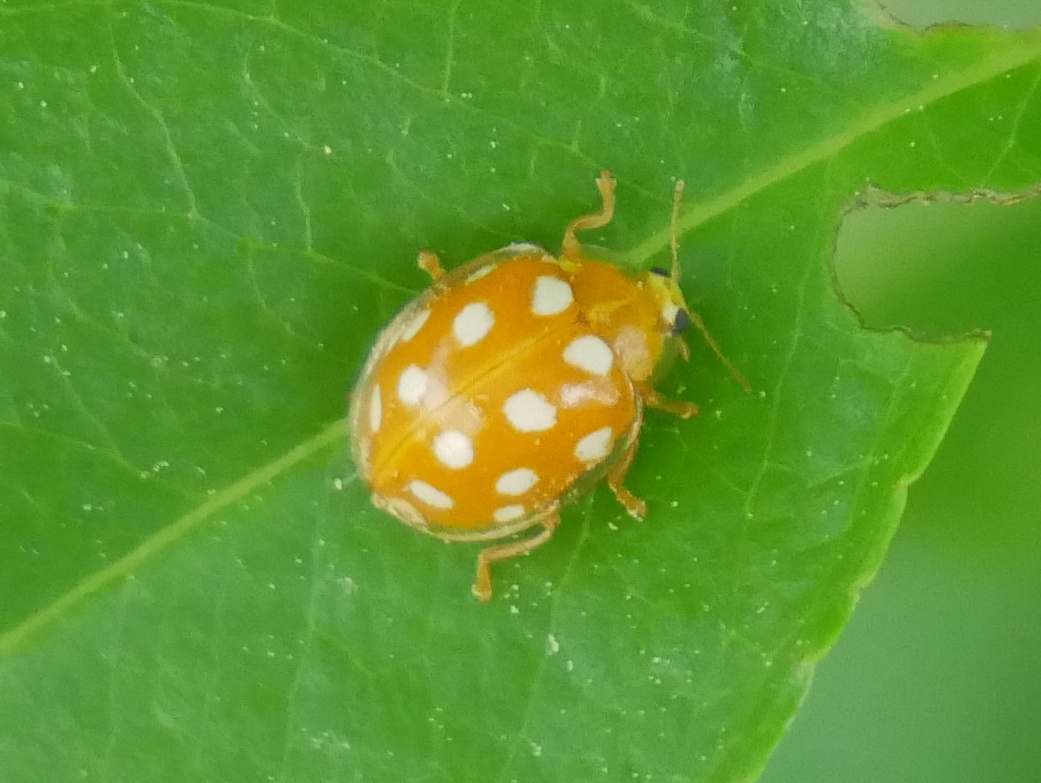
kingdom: Animalia
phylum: Arthropoda
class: Insecta
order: Coleoptera
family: Coccinellidae
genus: Halyzia
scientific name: Halyzia sedecimguttata
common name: Orange ladybird
